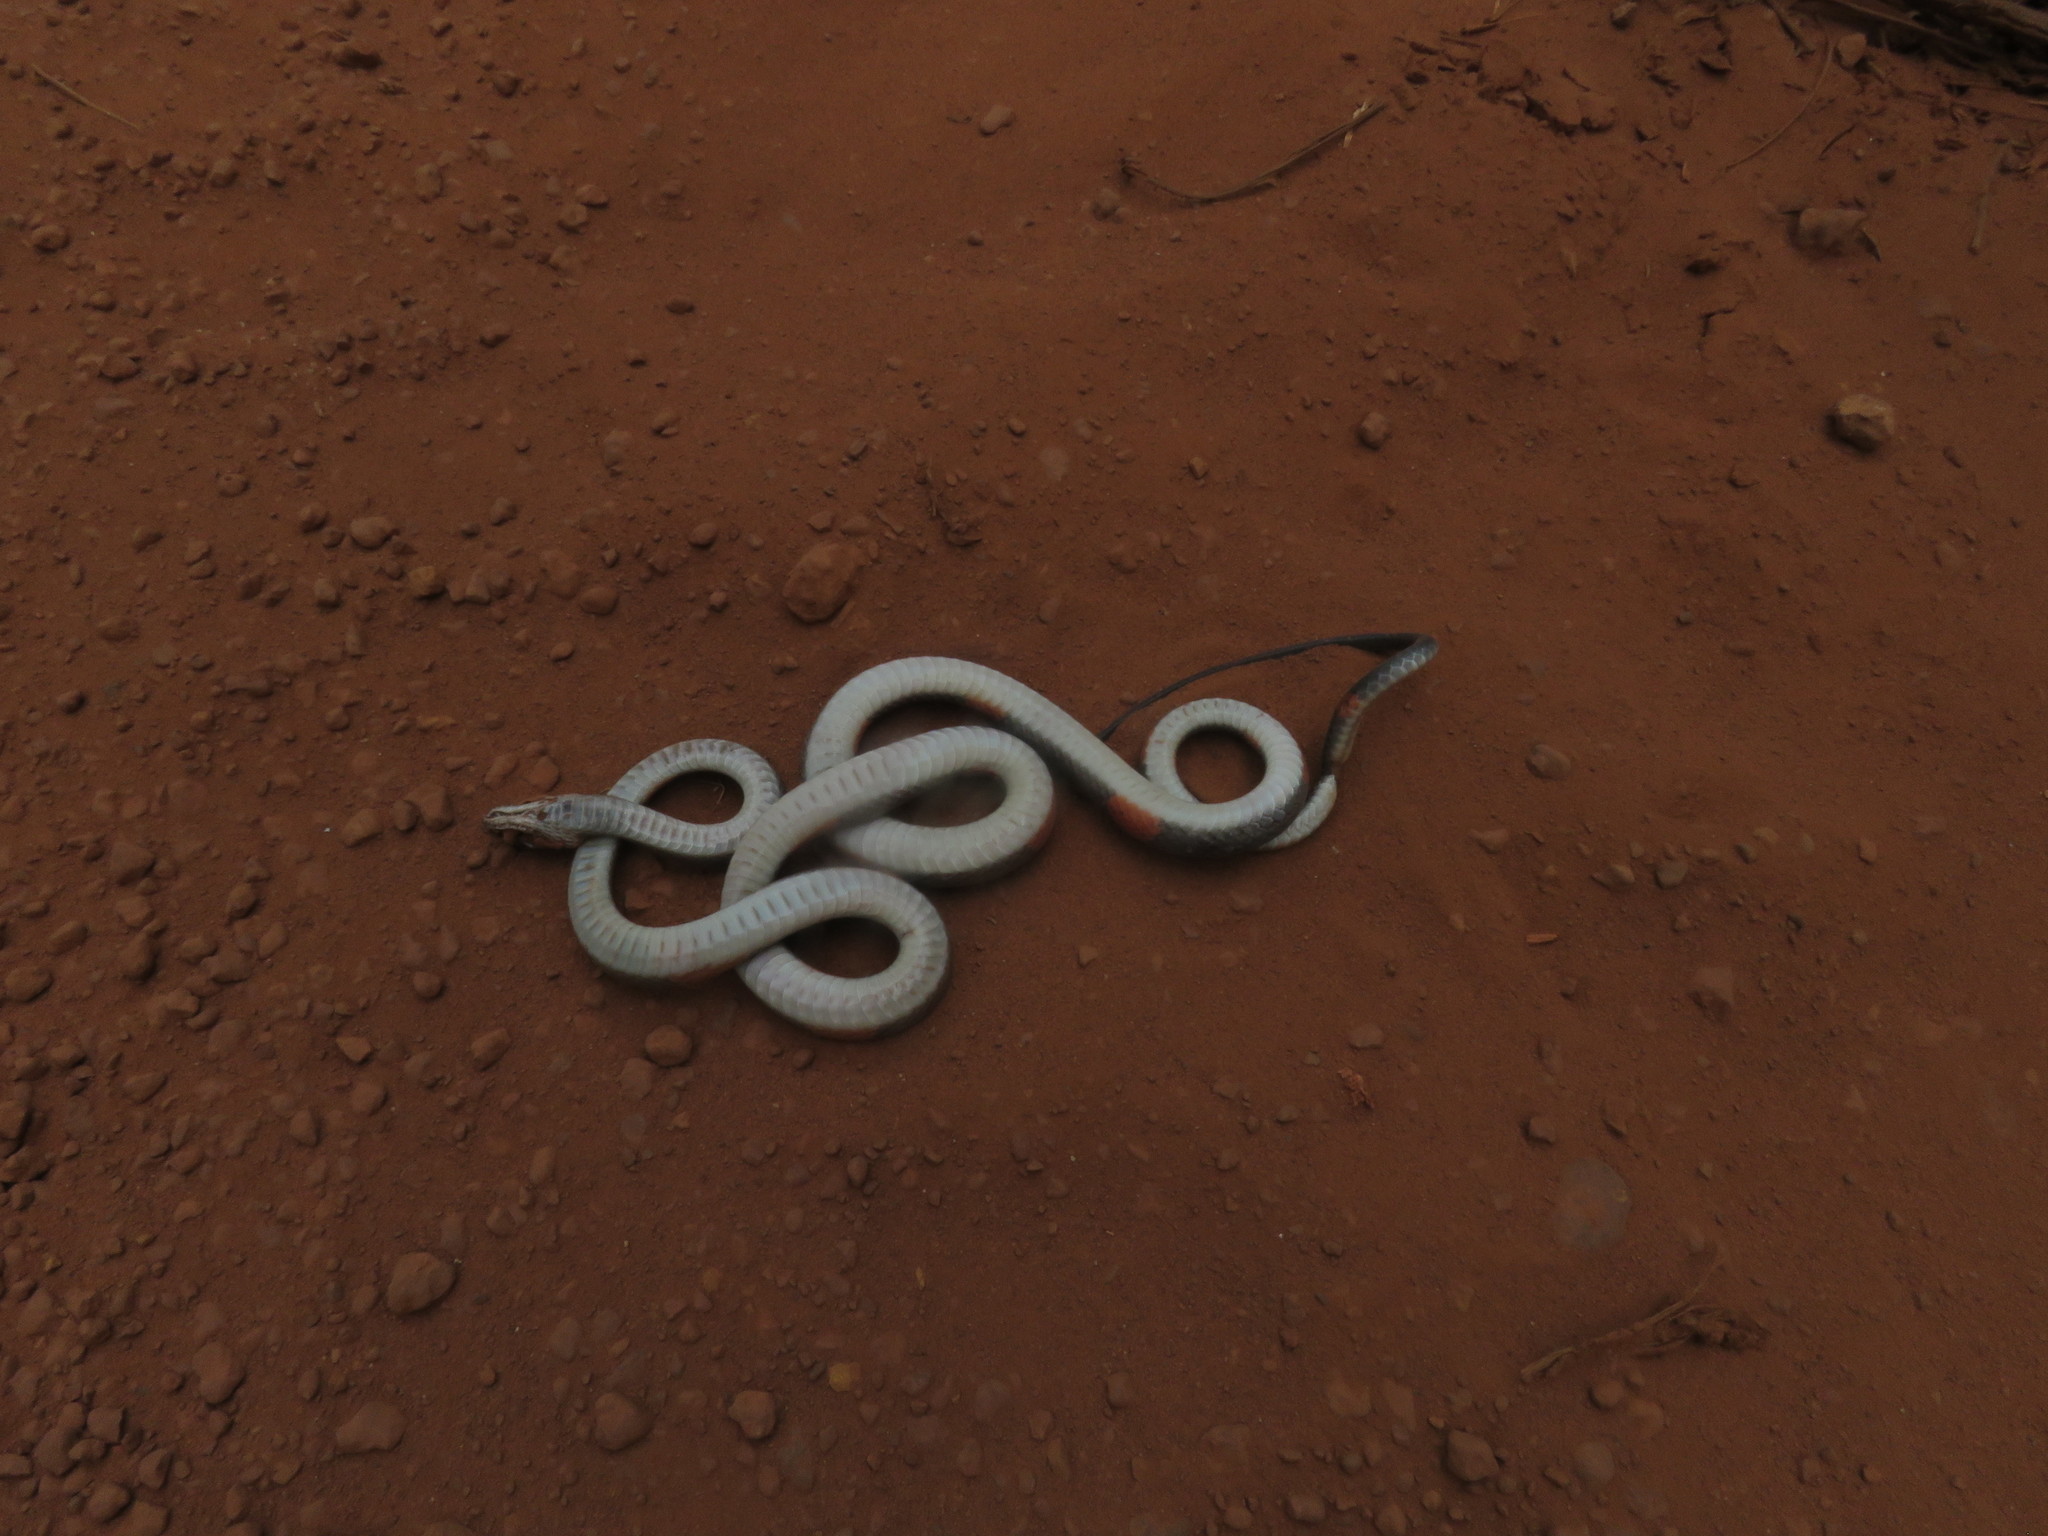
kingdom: Animalia
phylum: Chordata
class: Squamata
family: Colubridae
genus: Oxyrhopus
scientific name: Oxyrhopus petolarius
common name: Forest flame snake
